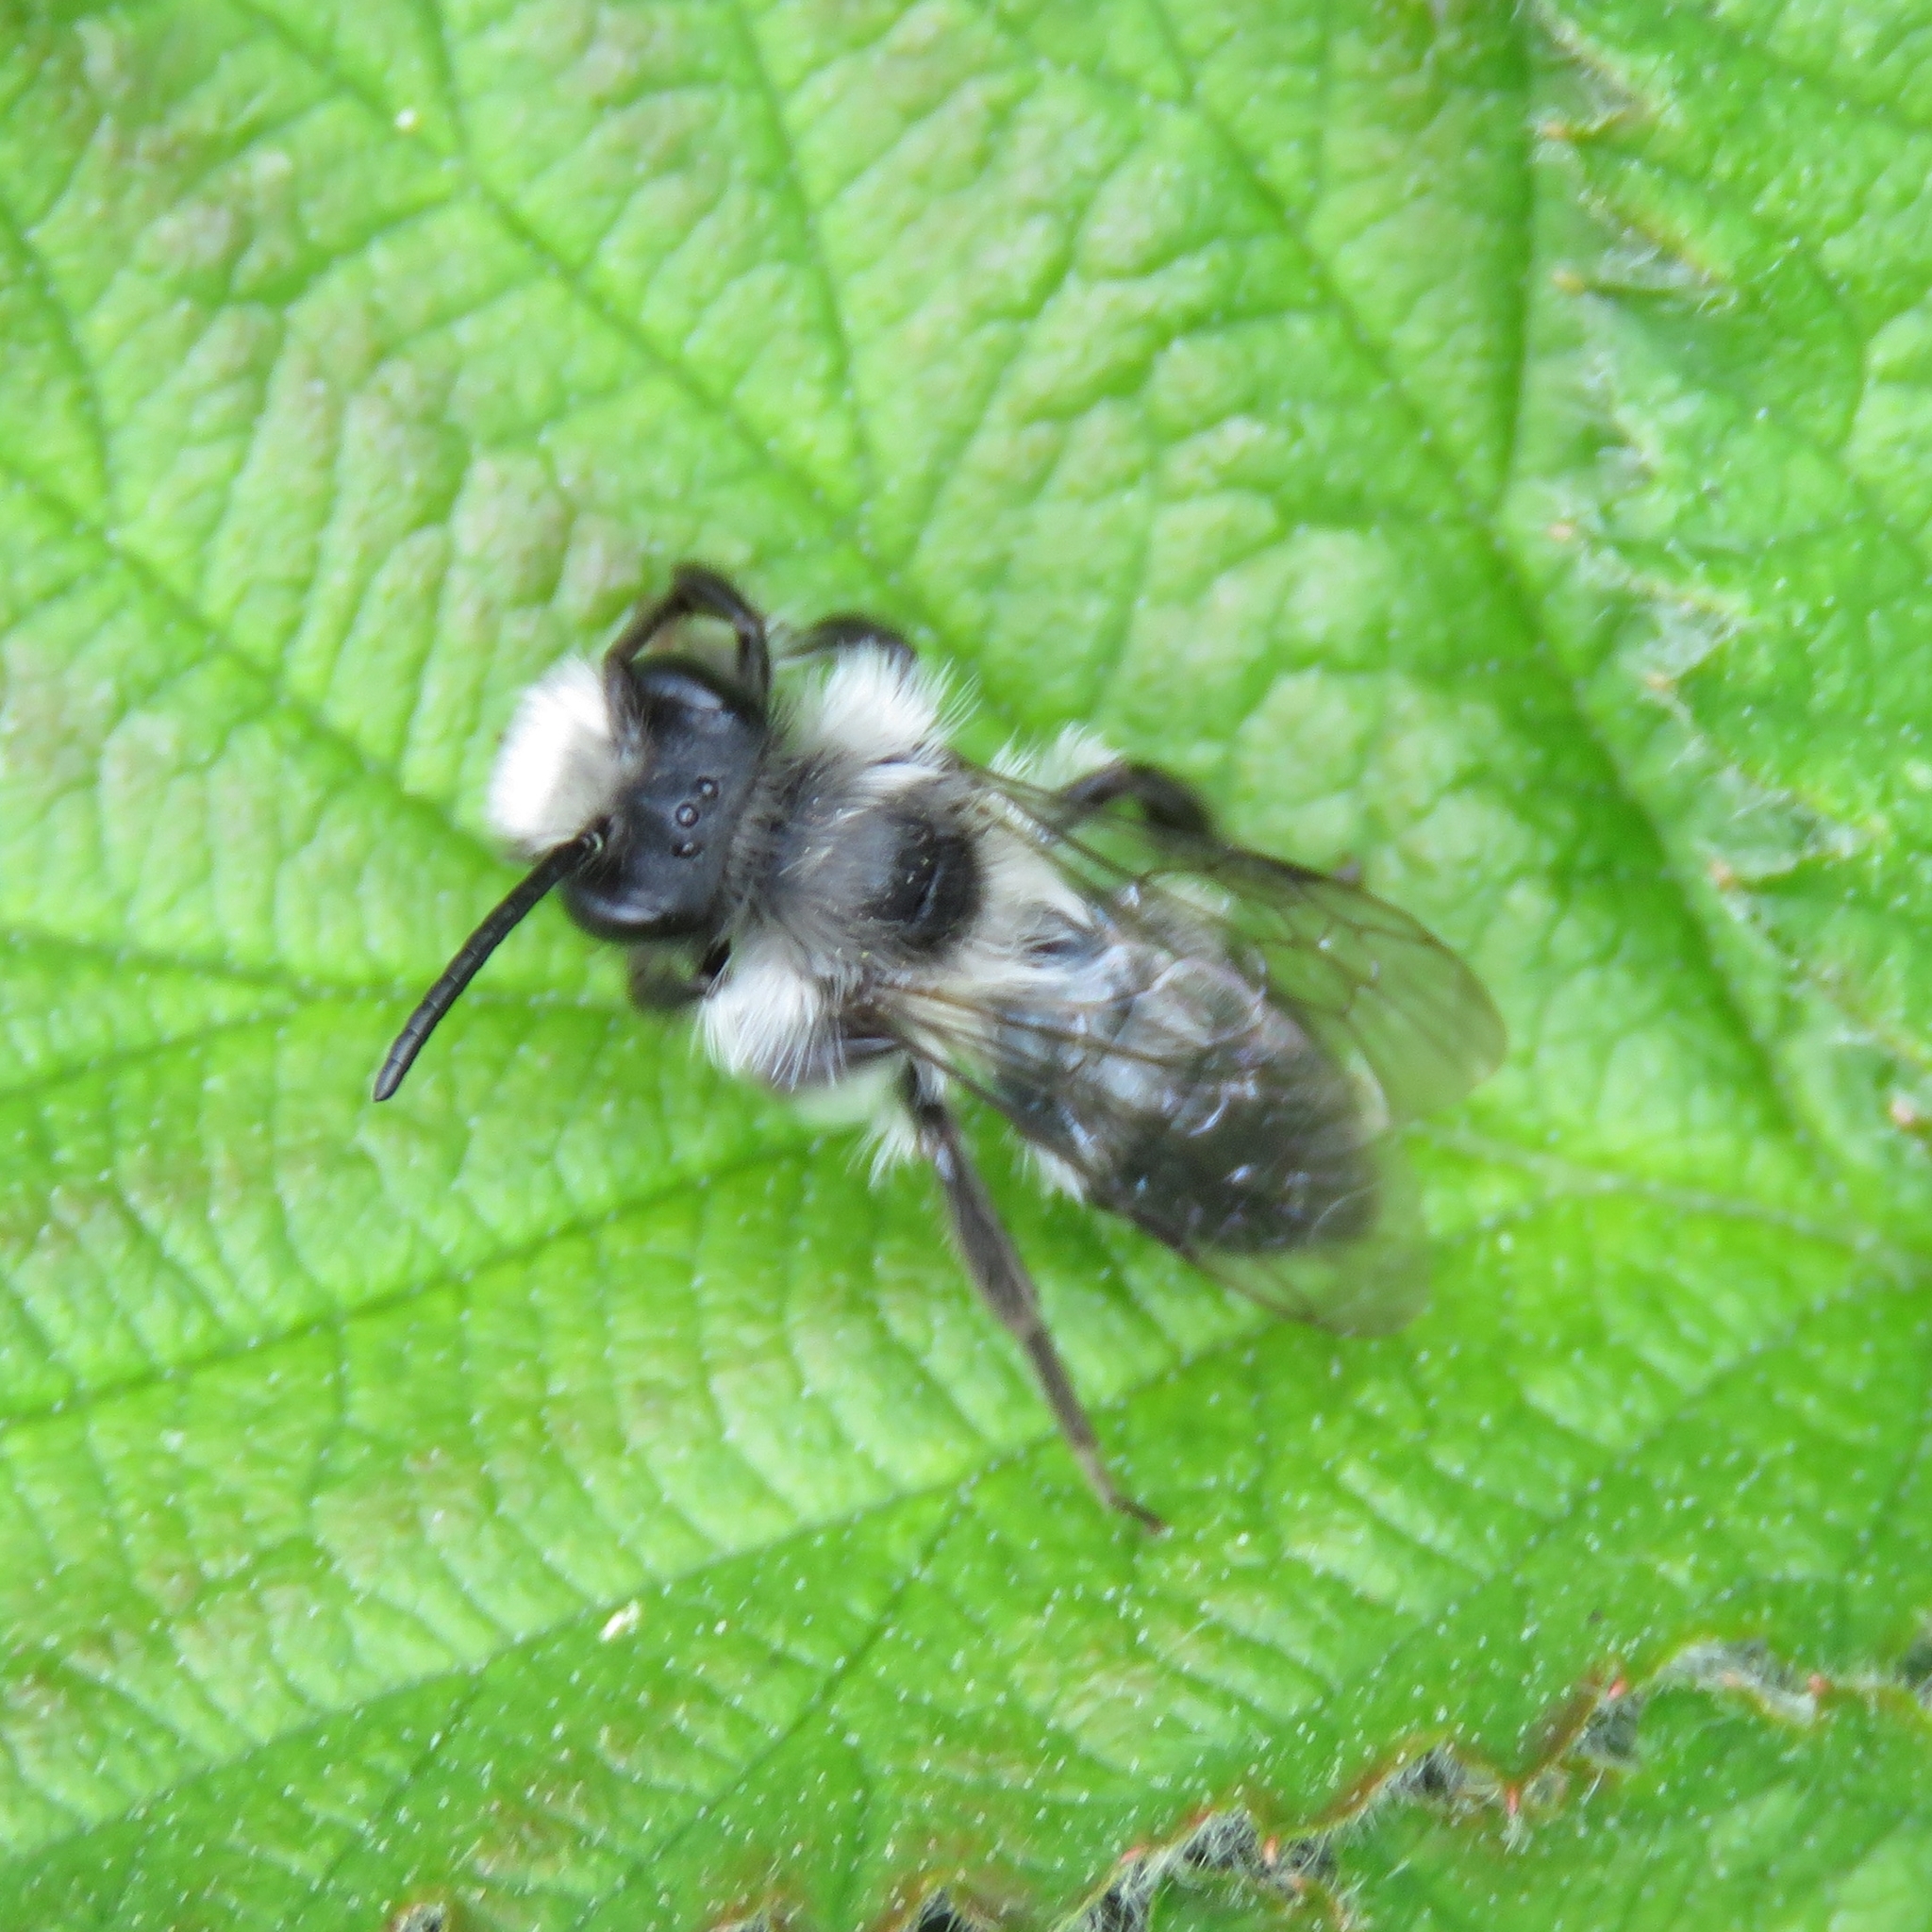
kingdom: Animalia
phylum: Arthropoda
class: Insecta
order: Hymenoptera
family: Andrenidae
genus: Andrena
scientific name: Andrena cineraria
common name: Ashy mining bee
